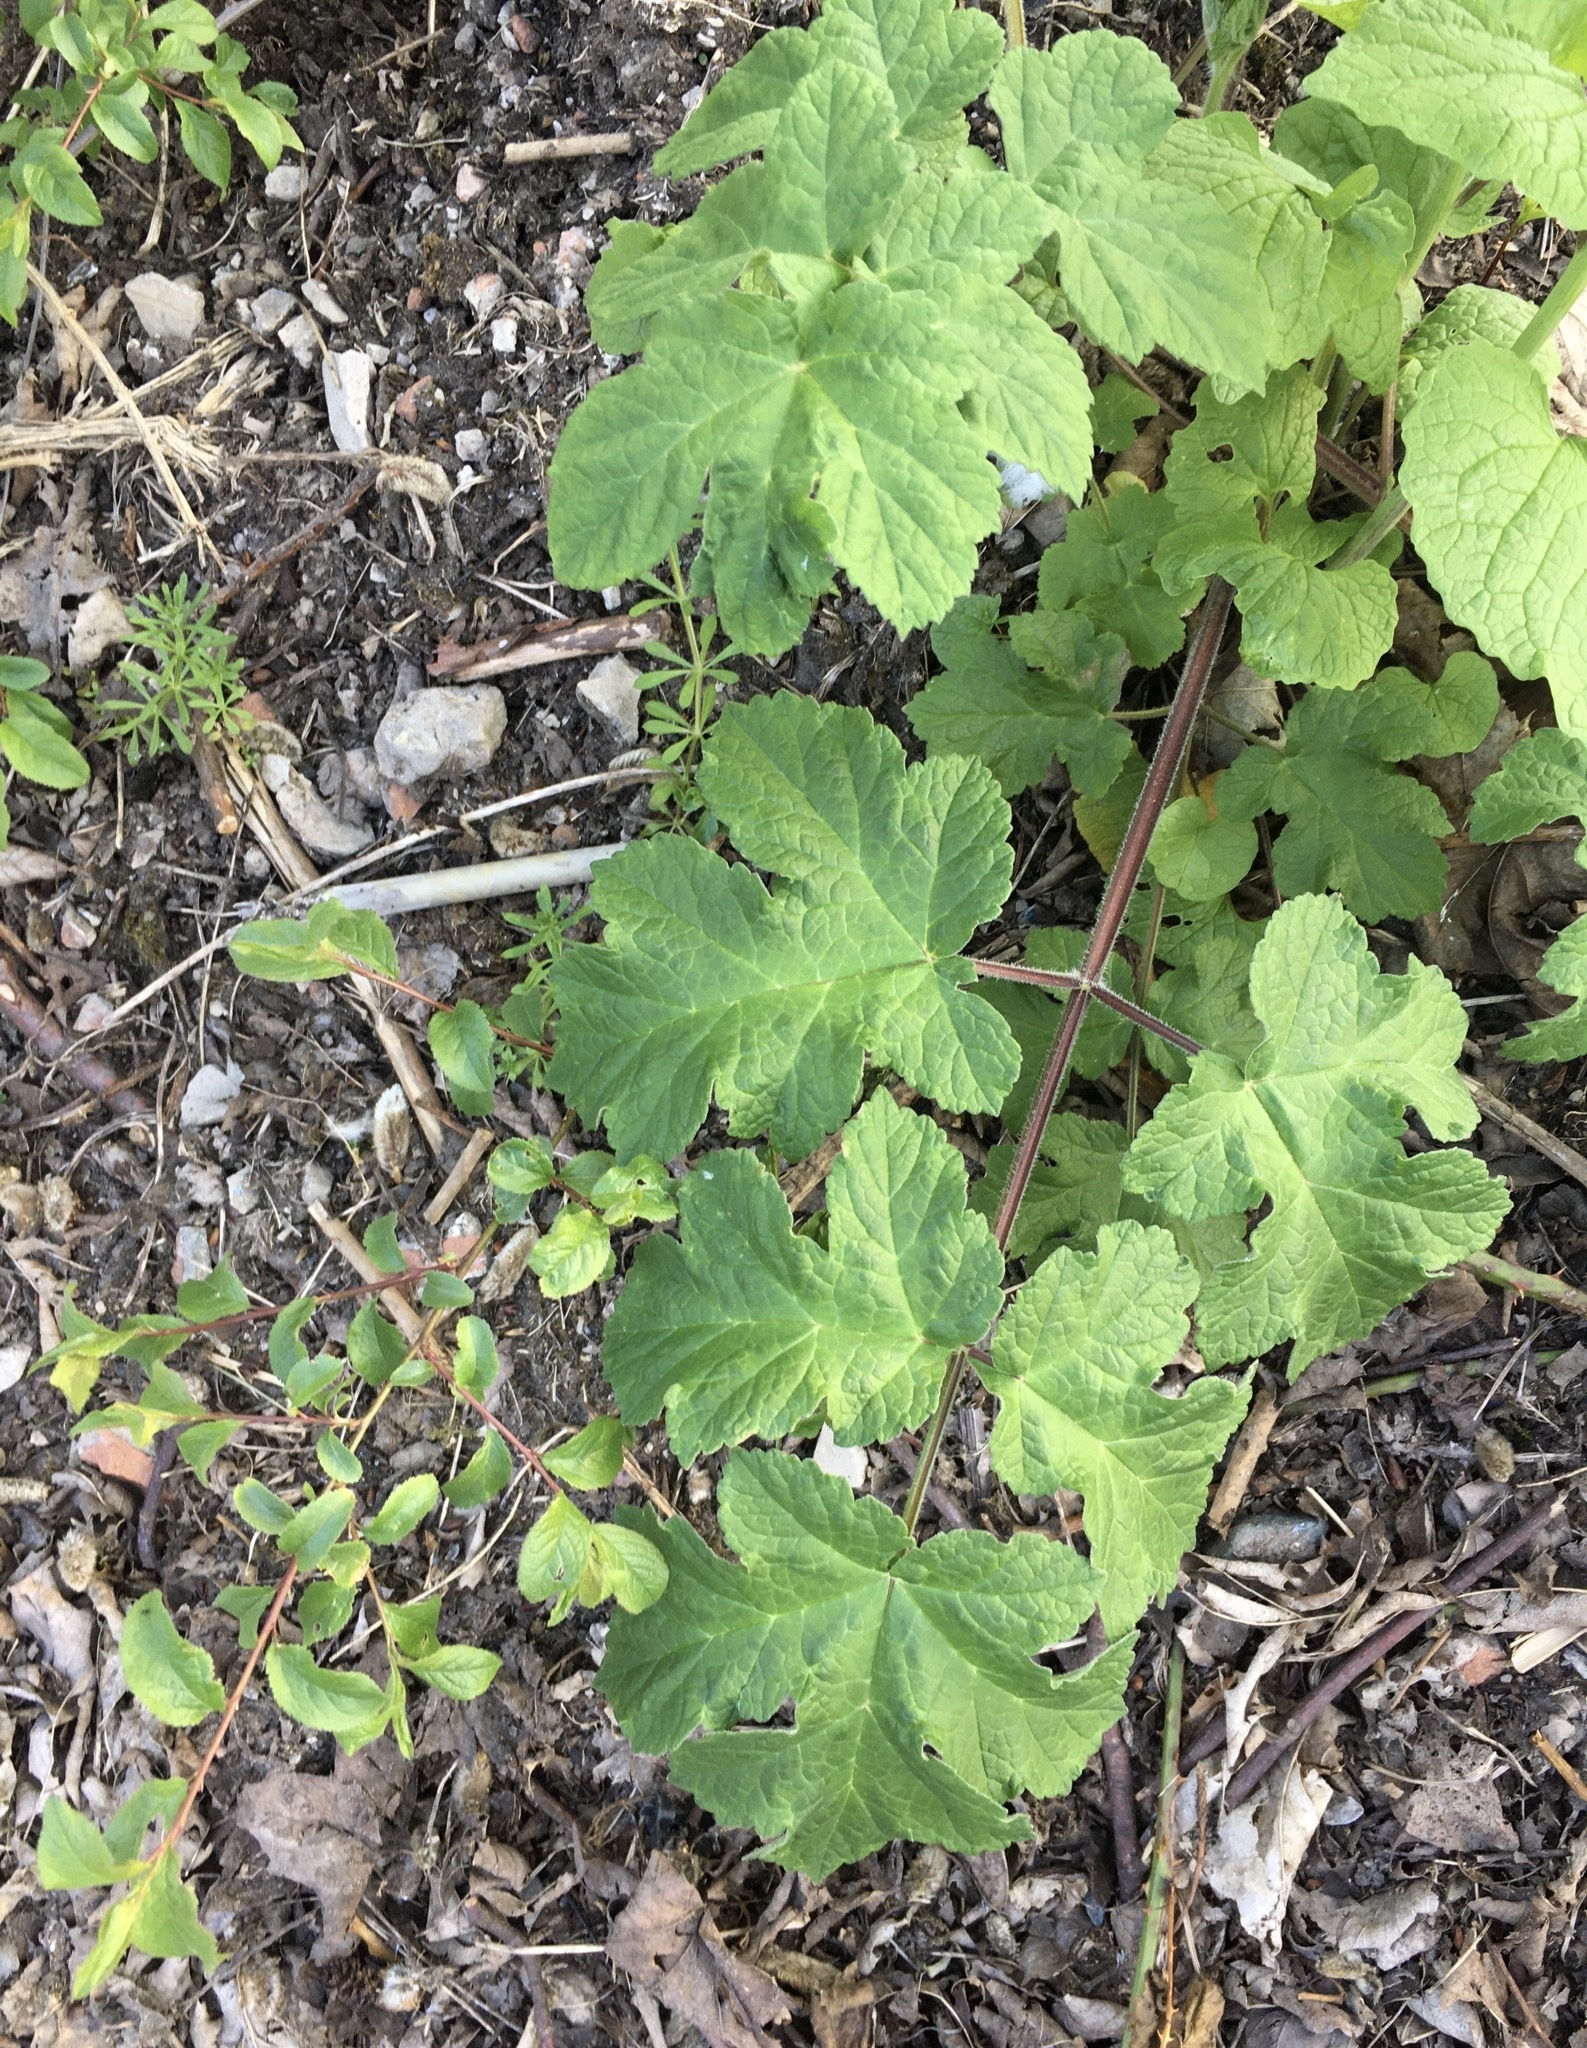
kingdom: Plantae
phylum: Tracheophyta
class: Magnoliopsida
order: Apiales
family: Apiaceae
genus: Heracleum
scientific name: Heracleum sphondylium
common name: Hogweed
